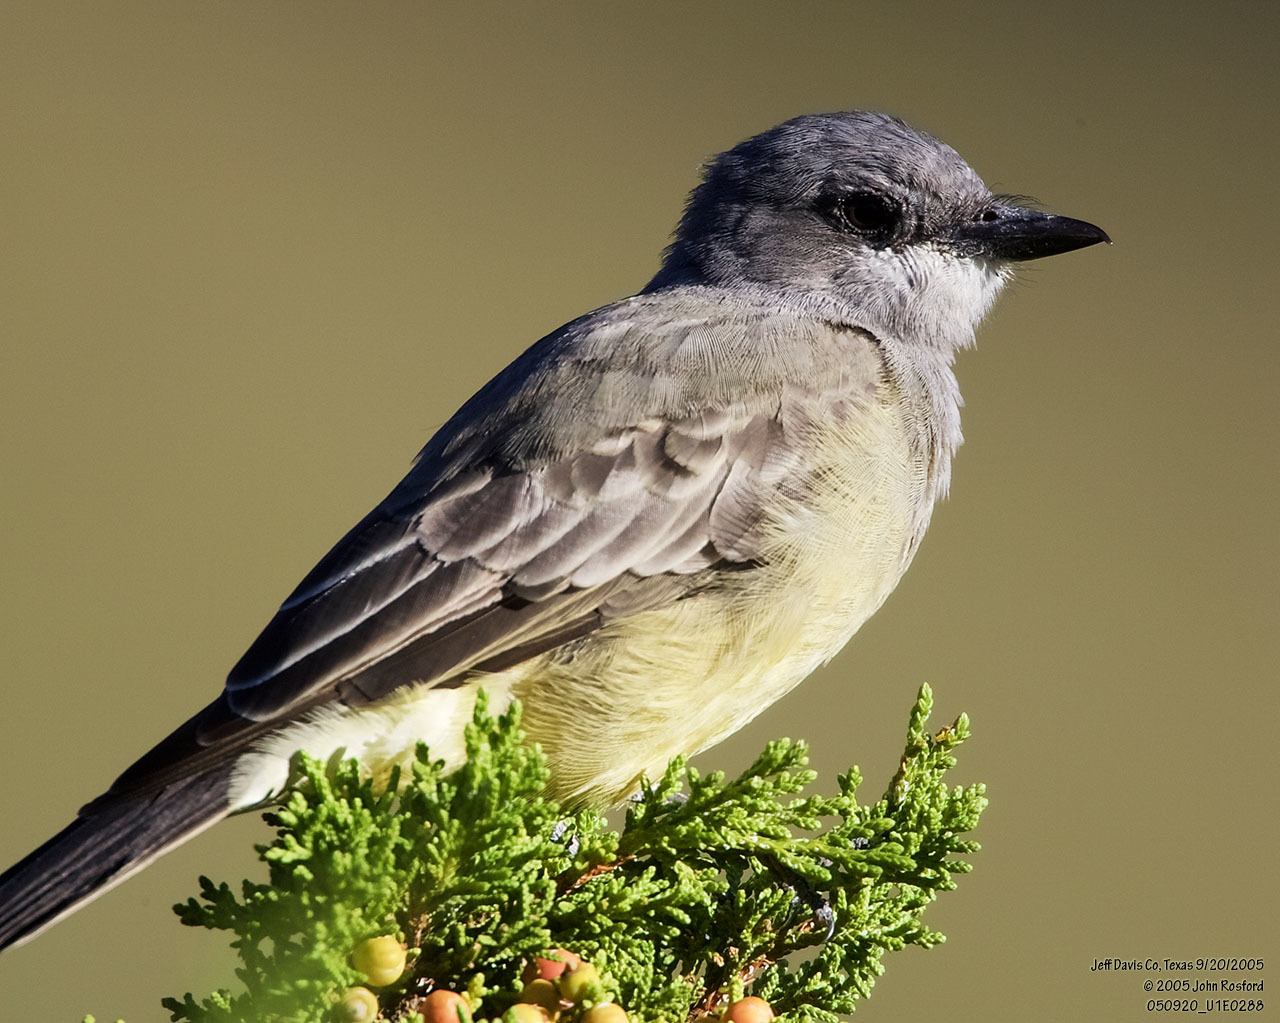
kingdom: Animalia
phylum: Chordata
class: Aves
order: Passeriformes
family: Tyrannidae
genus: Tyrannus
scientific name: Tyrannus vociferans
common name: Cassin's kingbird
